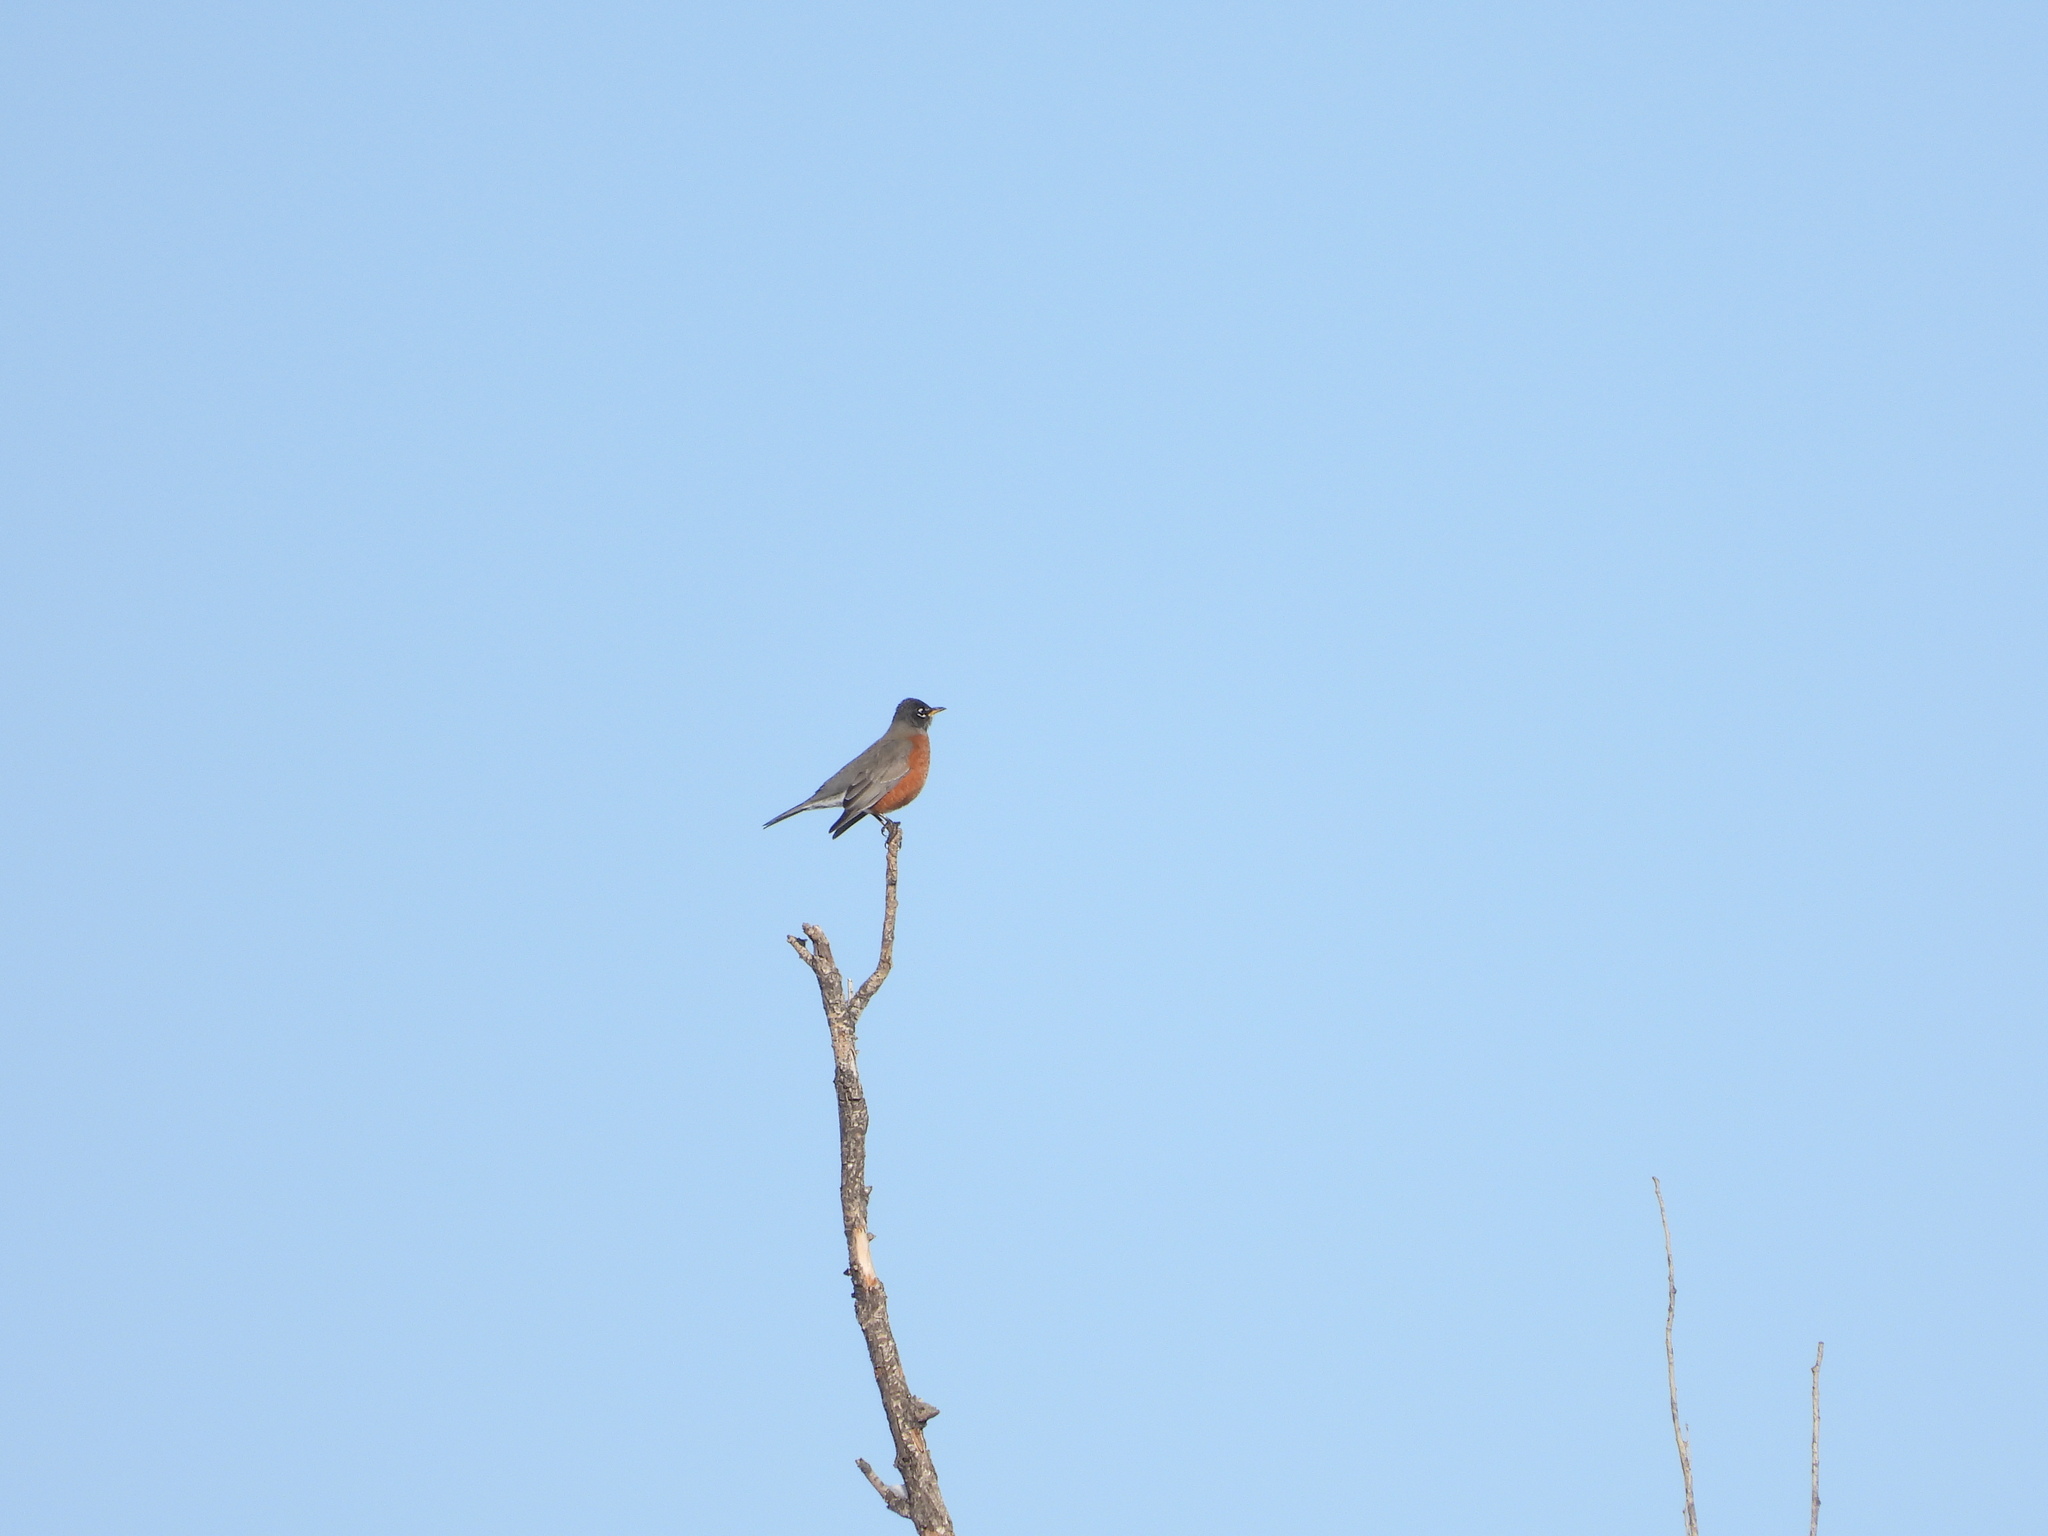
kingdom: Animalia
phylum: Chordata
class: Aves
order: Passeriformes
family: Turdidae
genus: Turdus
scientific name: Turdus migratorius
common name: American robin
